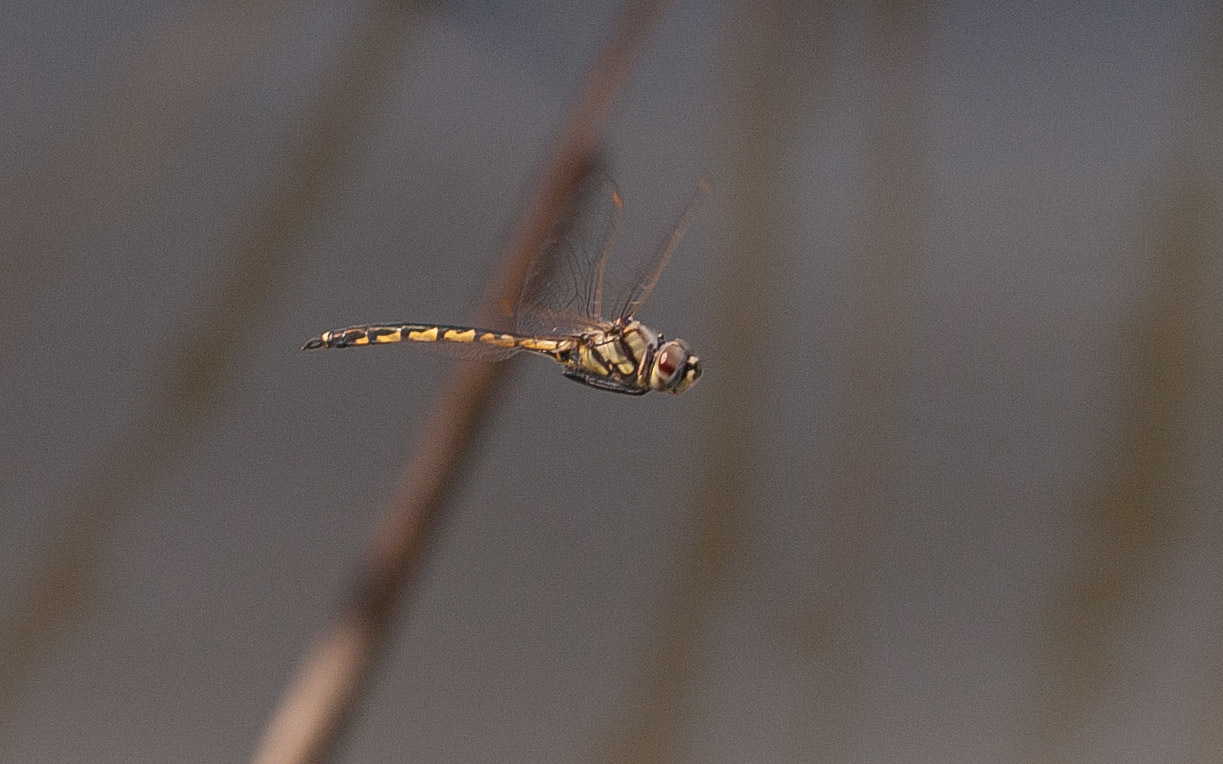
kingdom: Animalia
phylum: Arthropoda
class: Insecta
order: Odonata
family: Corduliidae
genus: Hemicordulia
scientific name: Hemicordulia tau
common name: Tau emerald
